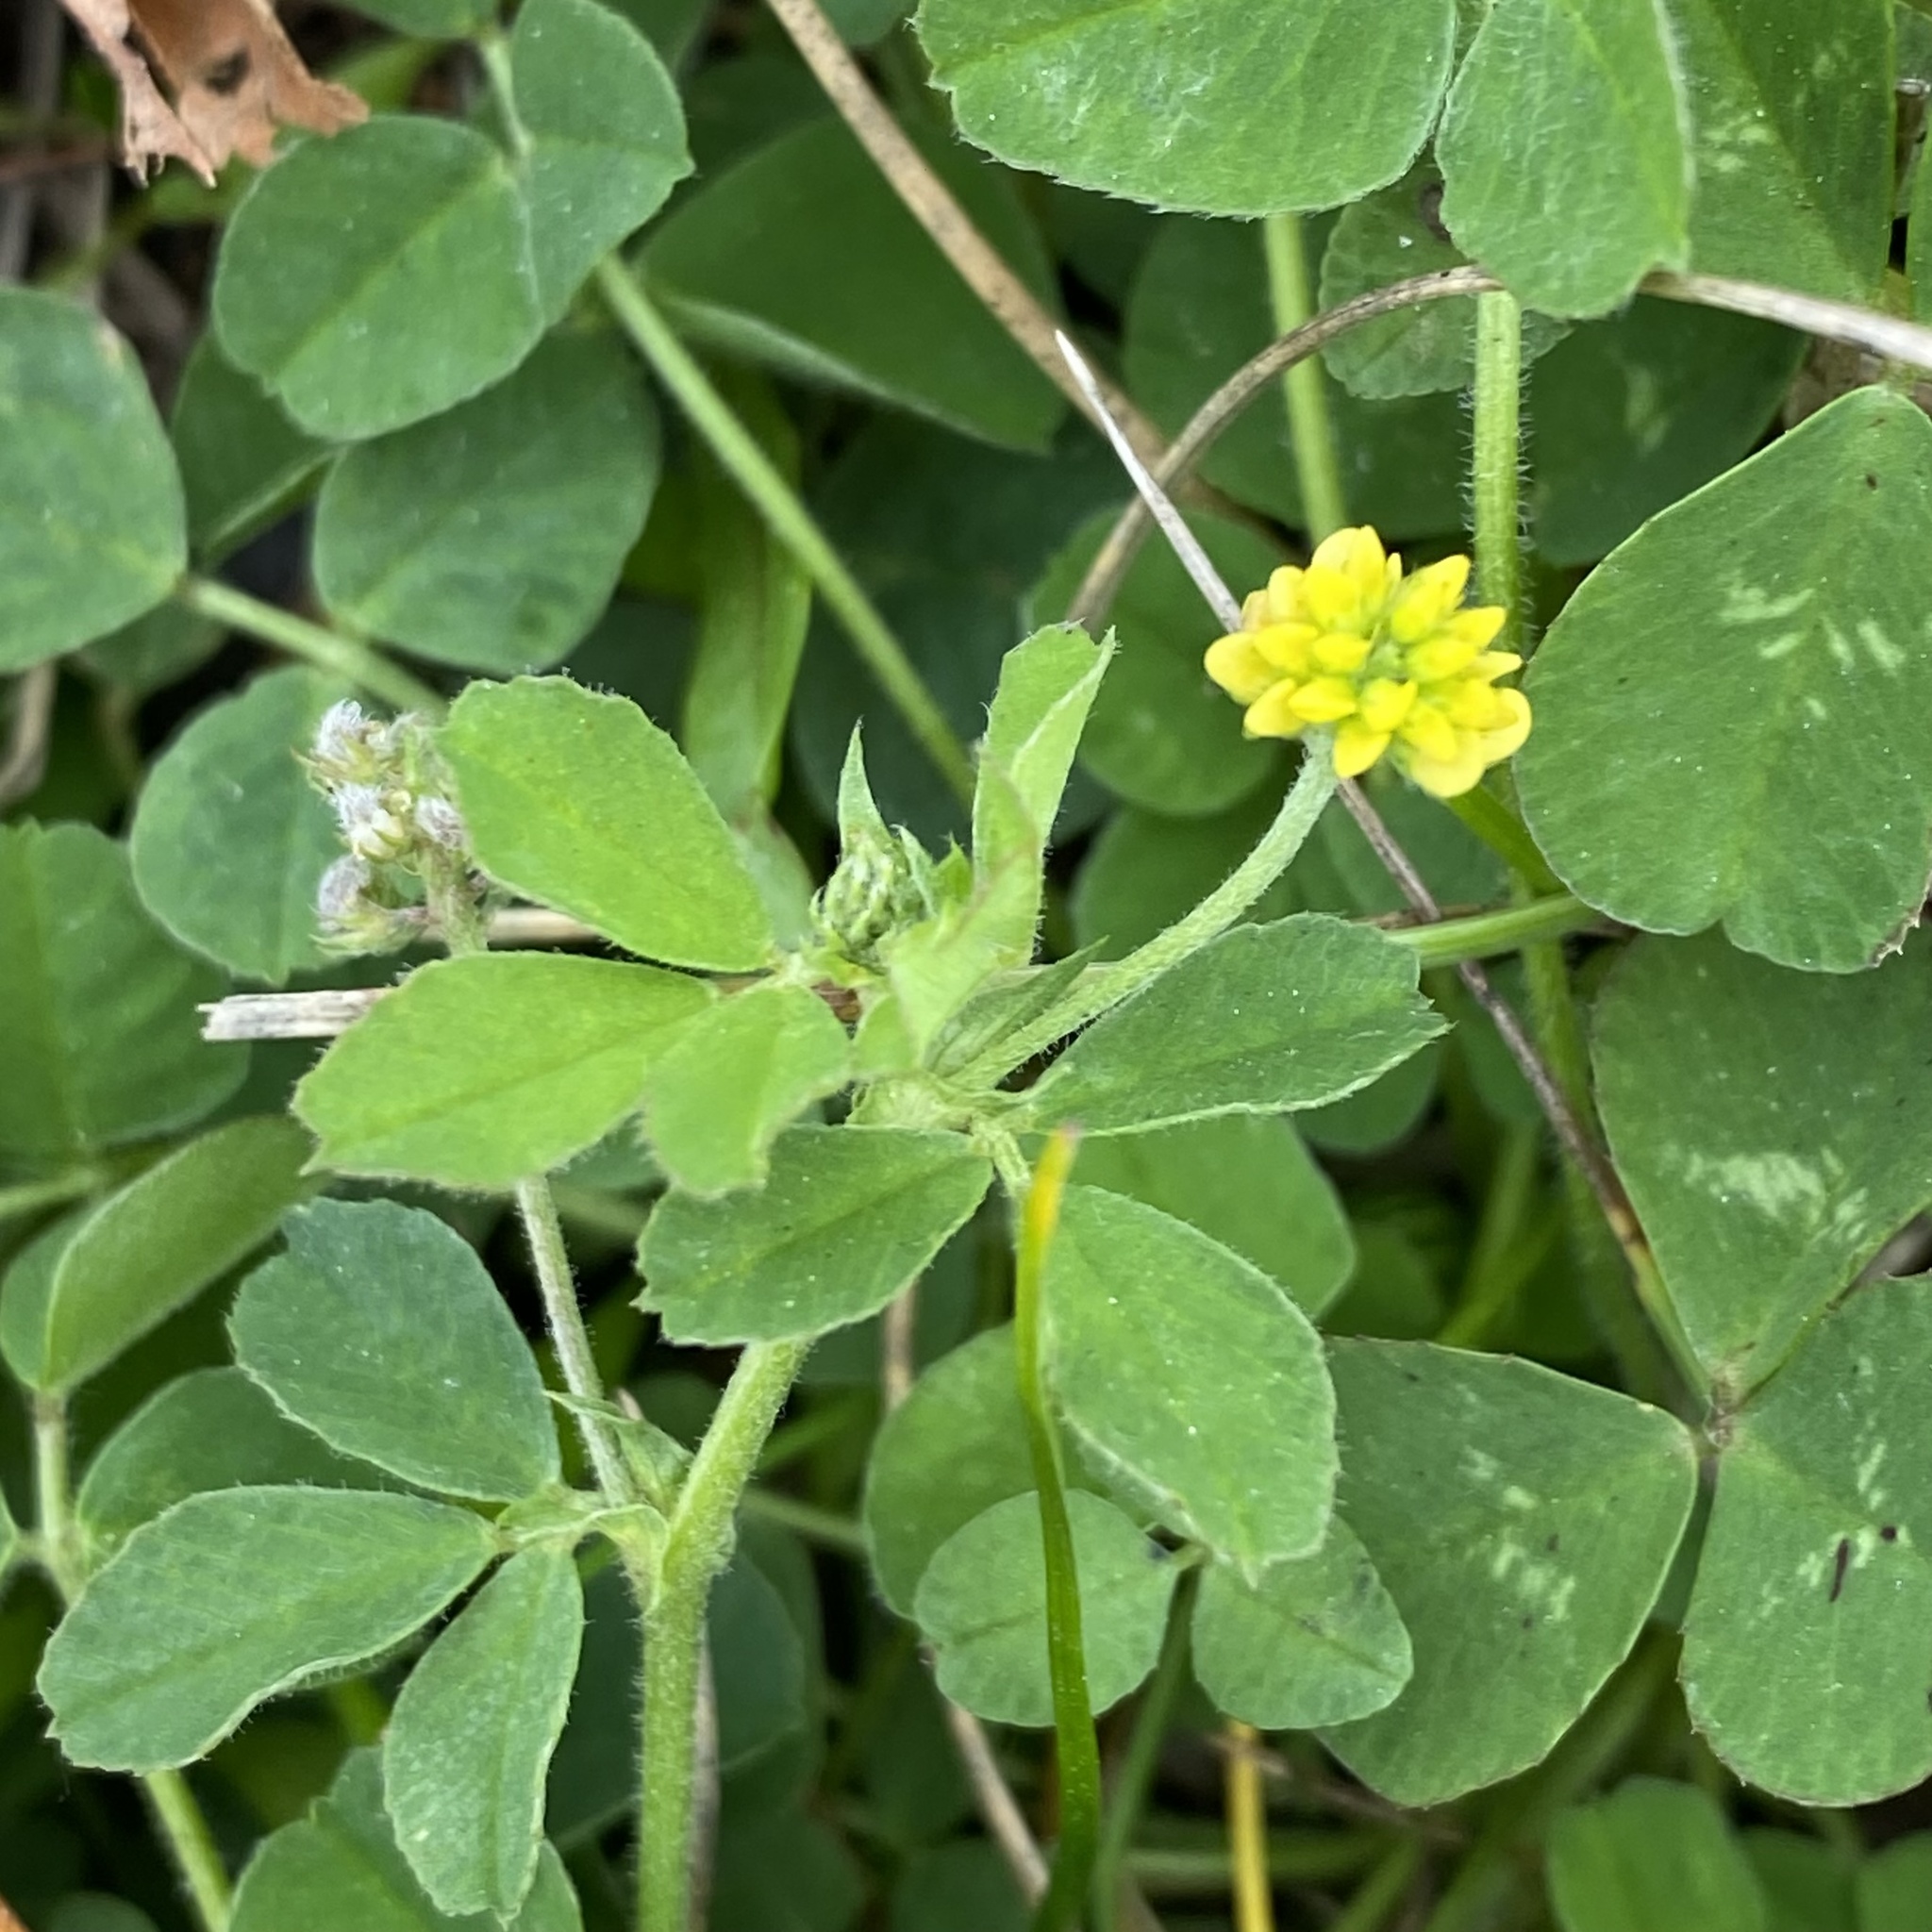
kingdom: Plantae
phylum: Tracheophyta
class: Magnoliopsida
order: Fabales
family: Fabaceae
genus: Medicago
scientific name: Medicago lupulina
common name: Black medick
